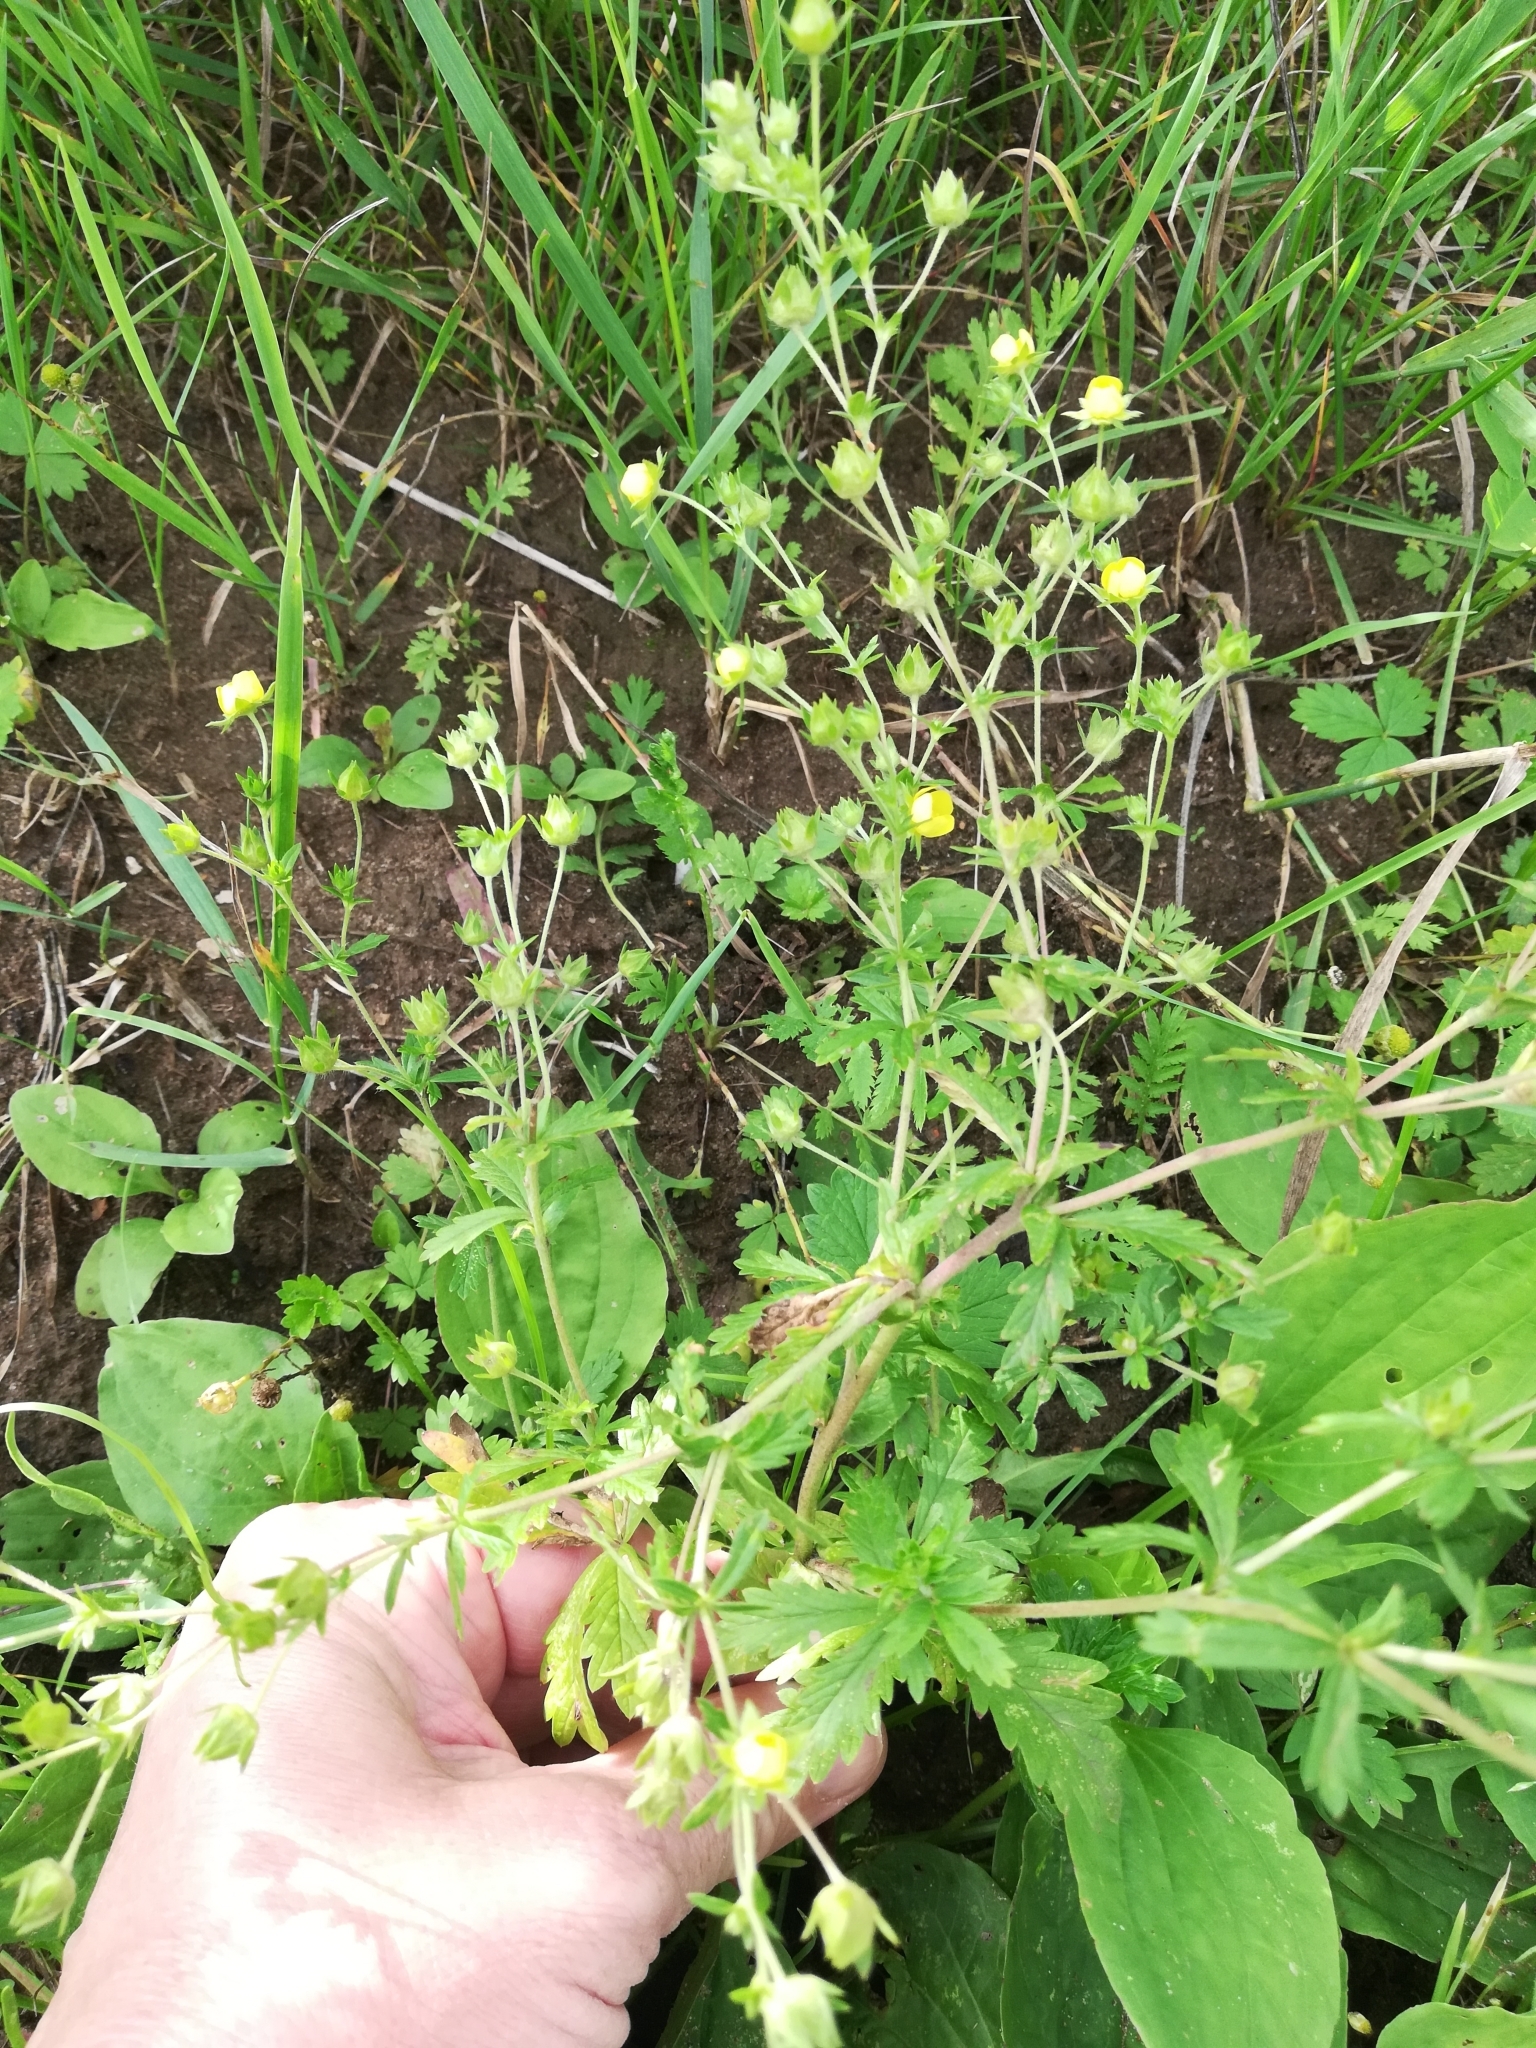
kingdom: Plantae
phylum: Tracheophyta
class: Magnoliopsida
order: Rosales
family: Rosaceae
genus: Potentilla
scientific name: Potentilla intermedia
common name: Downy cinquefoil
